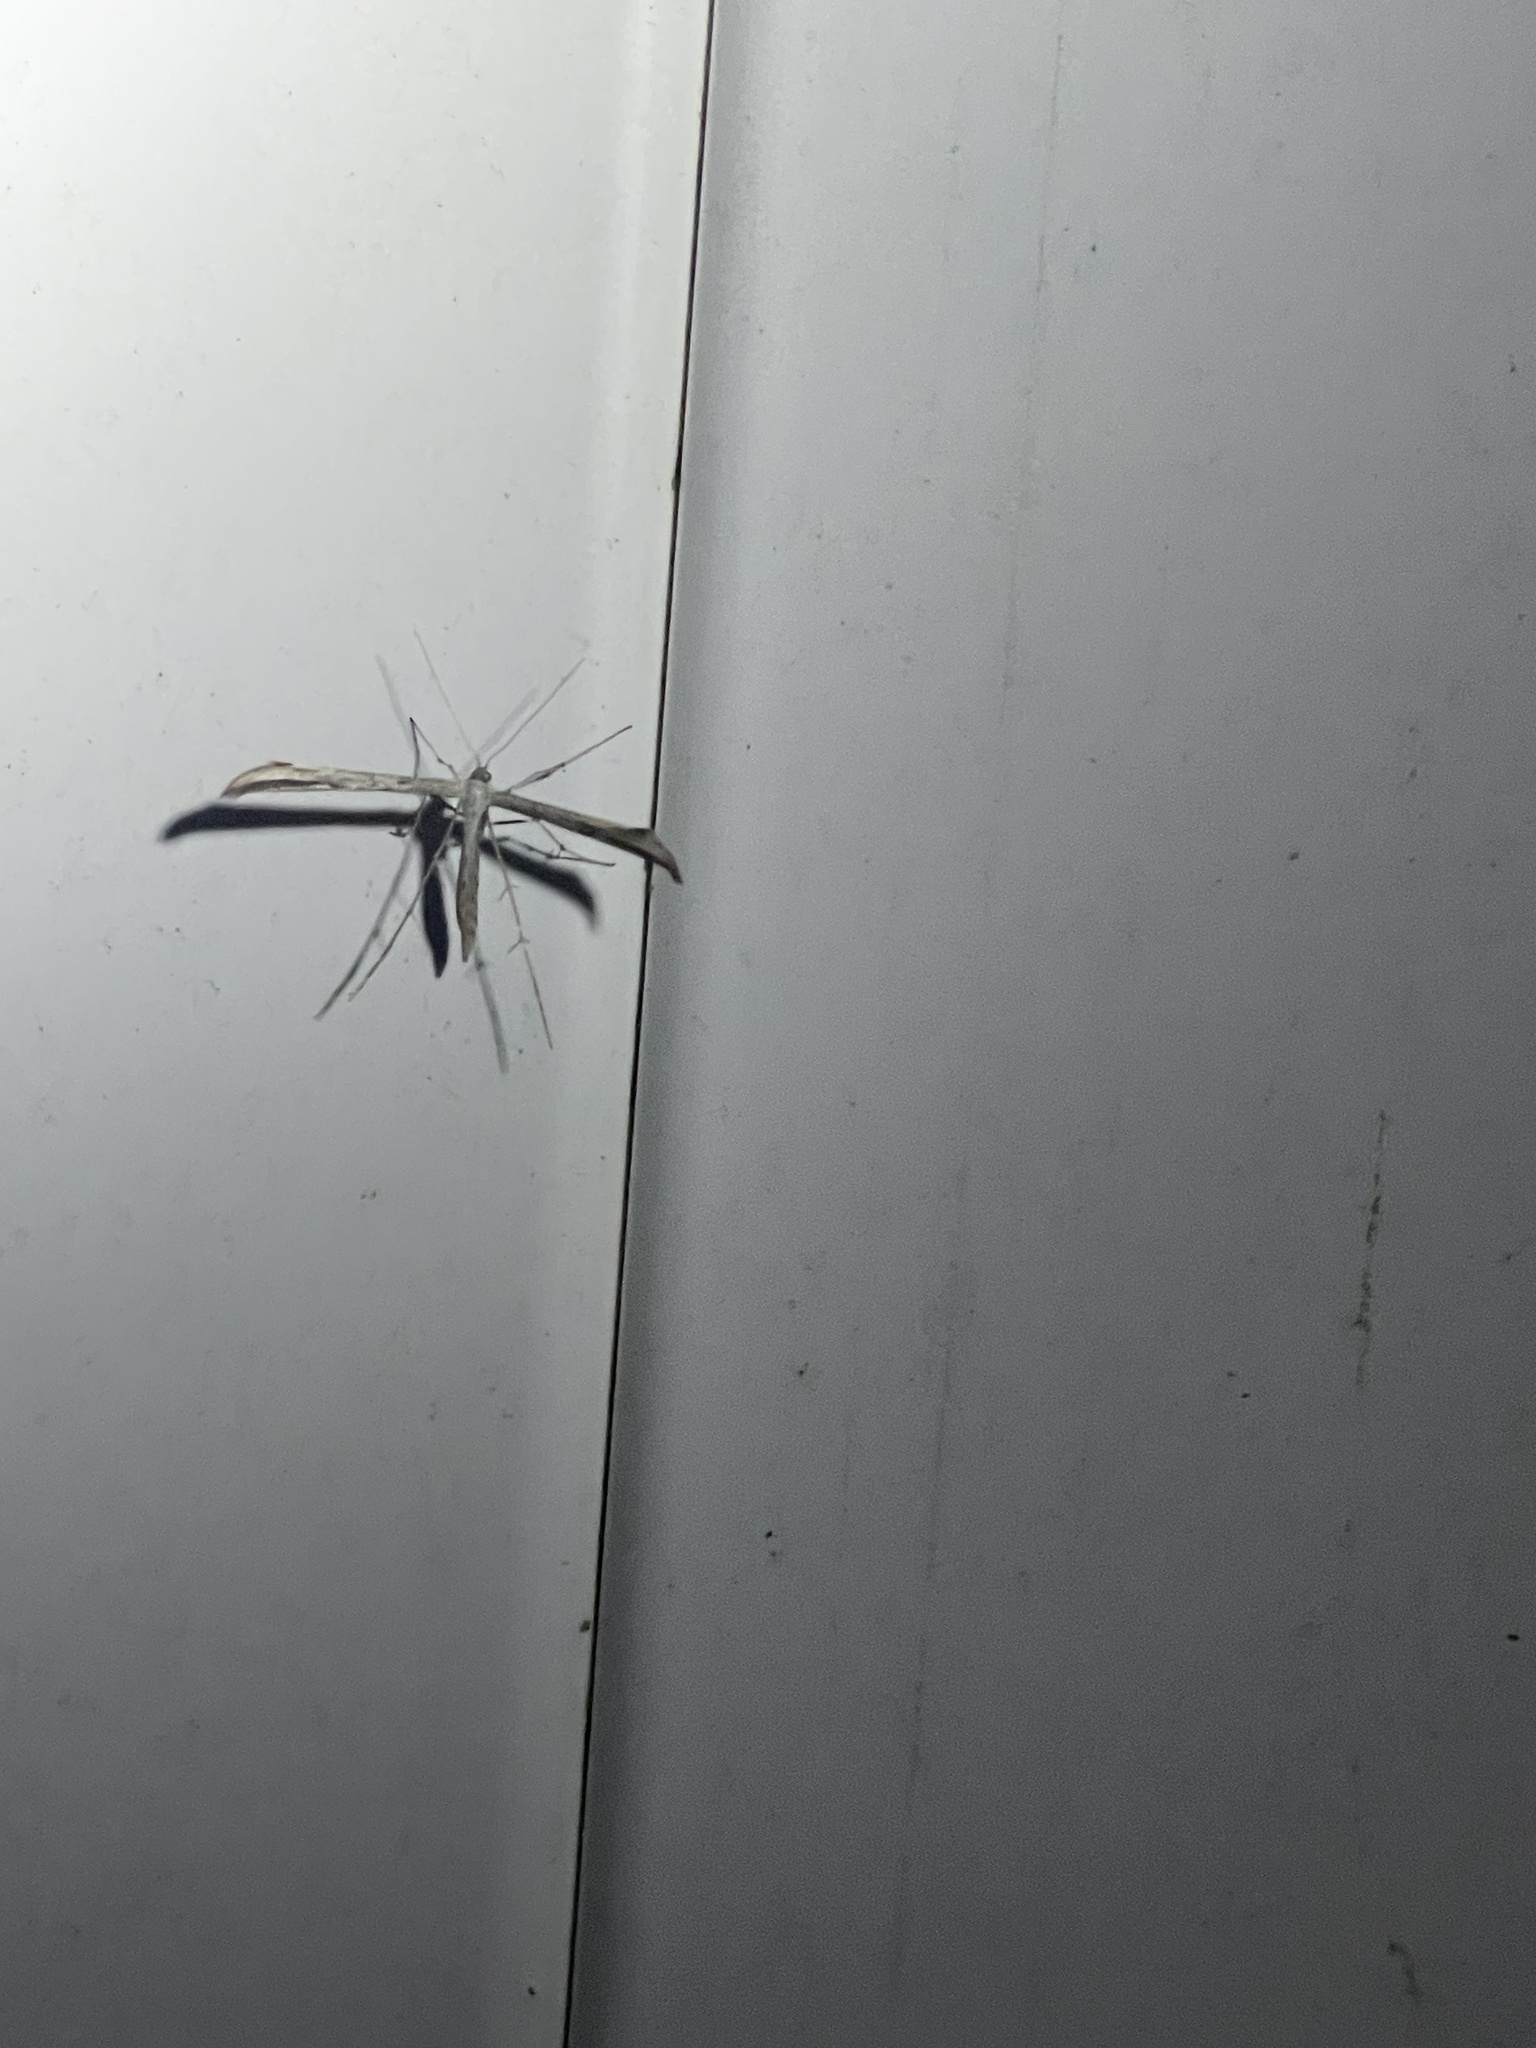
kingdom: Animalia
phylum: Arthropoda
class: Insecta
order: Lepidoptera
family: Pterophoridae
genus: Emmelina
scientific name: Emmelina monodactyla
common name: Common plume
